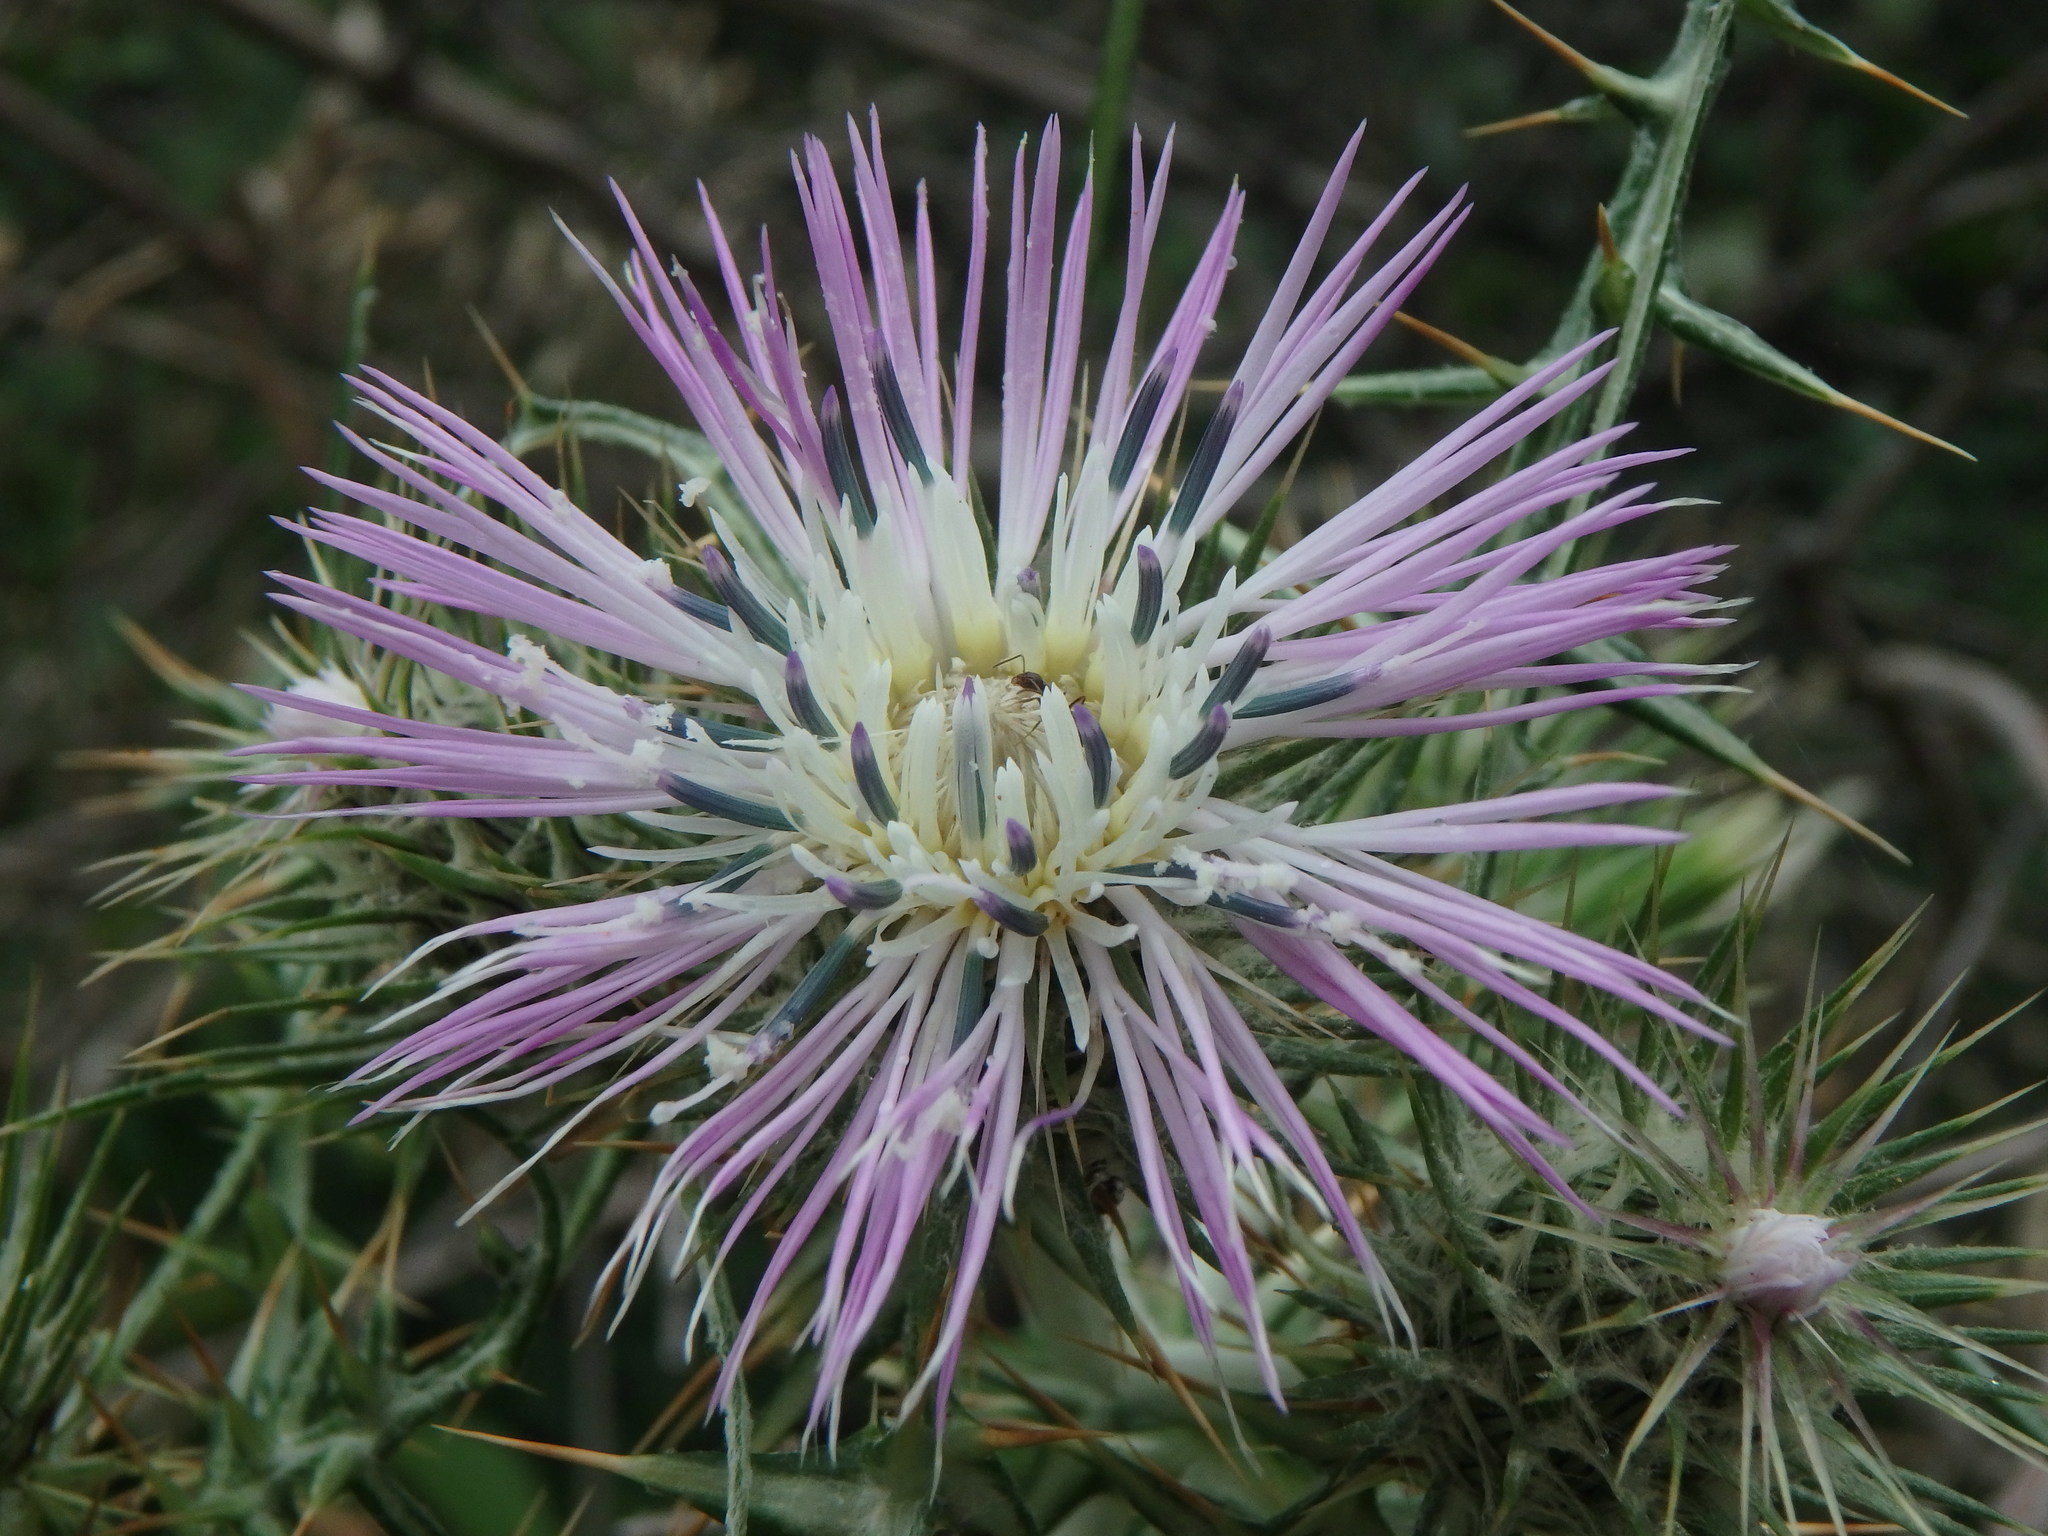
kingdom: Plantae
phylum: Tracheophyta
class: Magnoliopsida
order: Asterales
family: Asteraceae
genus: Galactites
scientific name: Galactites tomentosa
